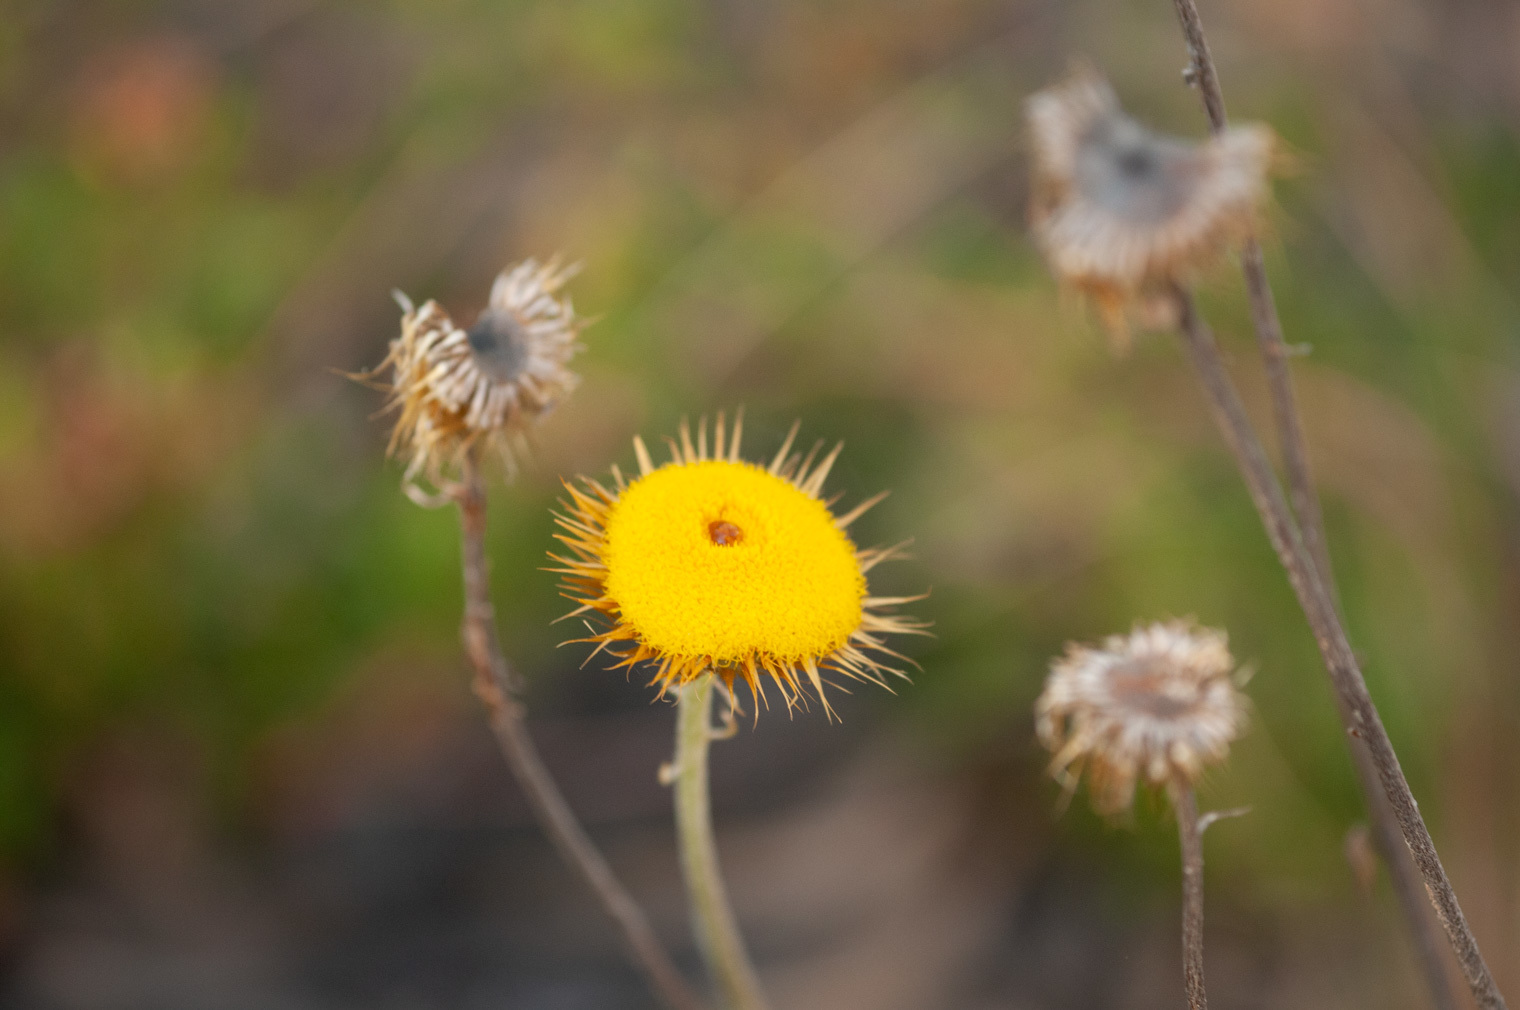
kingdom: Plantae
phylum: Tracheophyta
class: Magnoliopsida
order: Asterales
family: Asteraceae
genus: Coronidium
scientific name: Coronidium oxylepis
